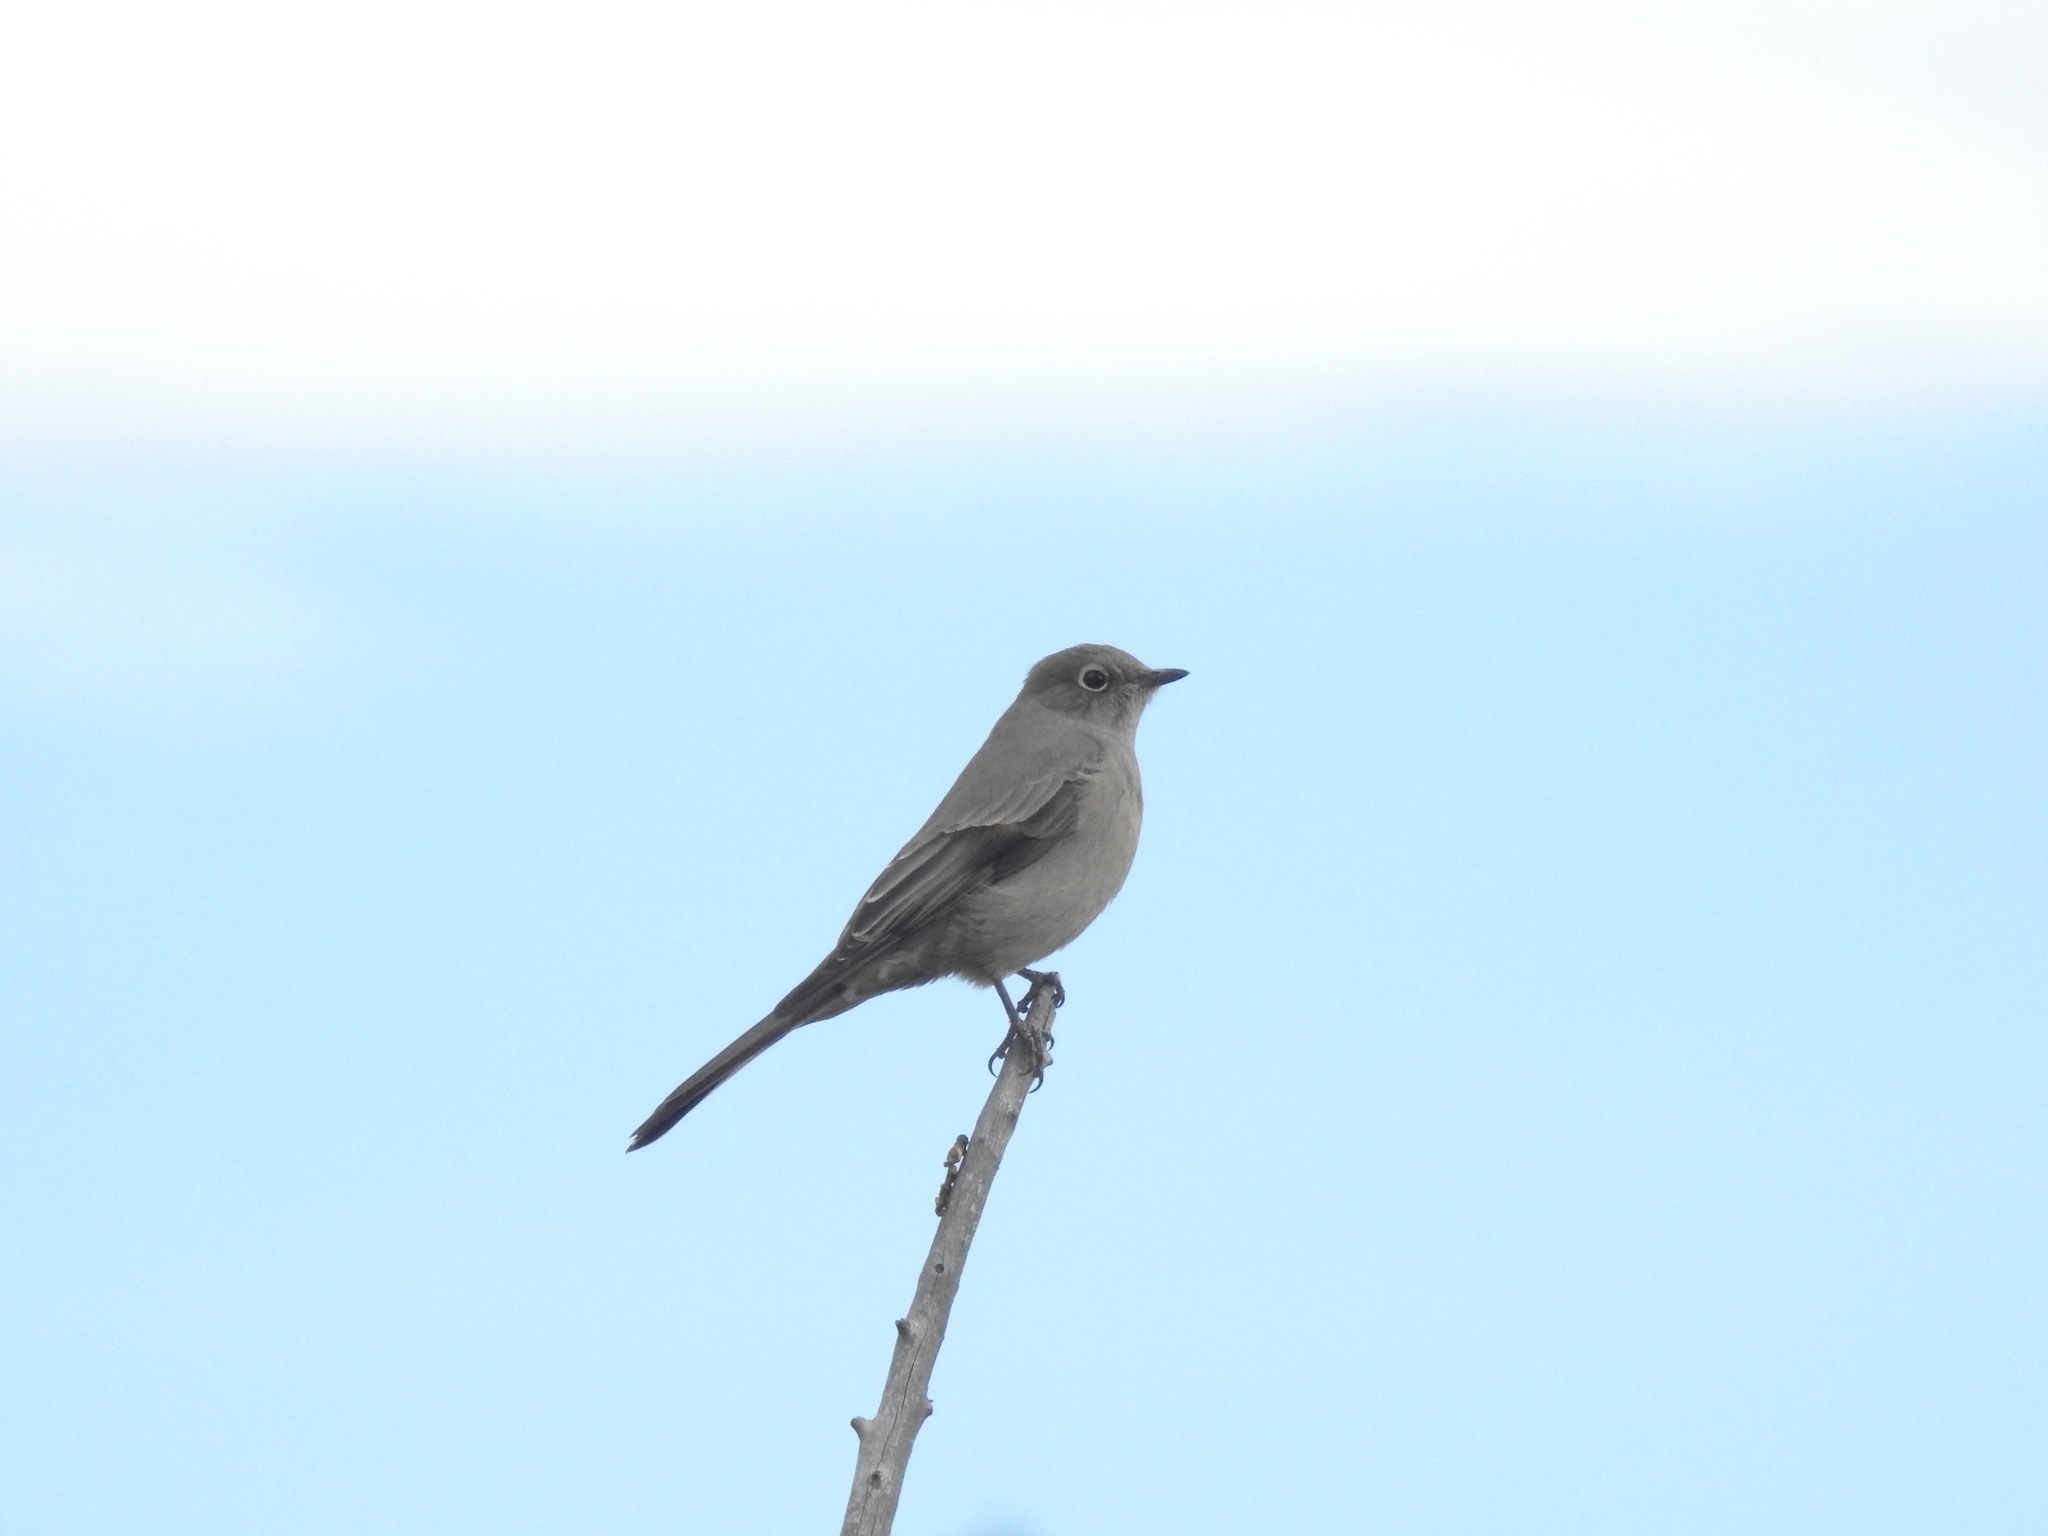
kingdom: Animalia
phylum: Chordata
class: Aves
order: Passeriformes
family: Turdidae
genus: Myadestes
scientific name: Myadestes townsendi
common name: Townsend's solitaire
